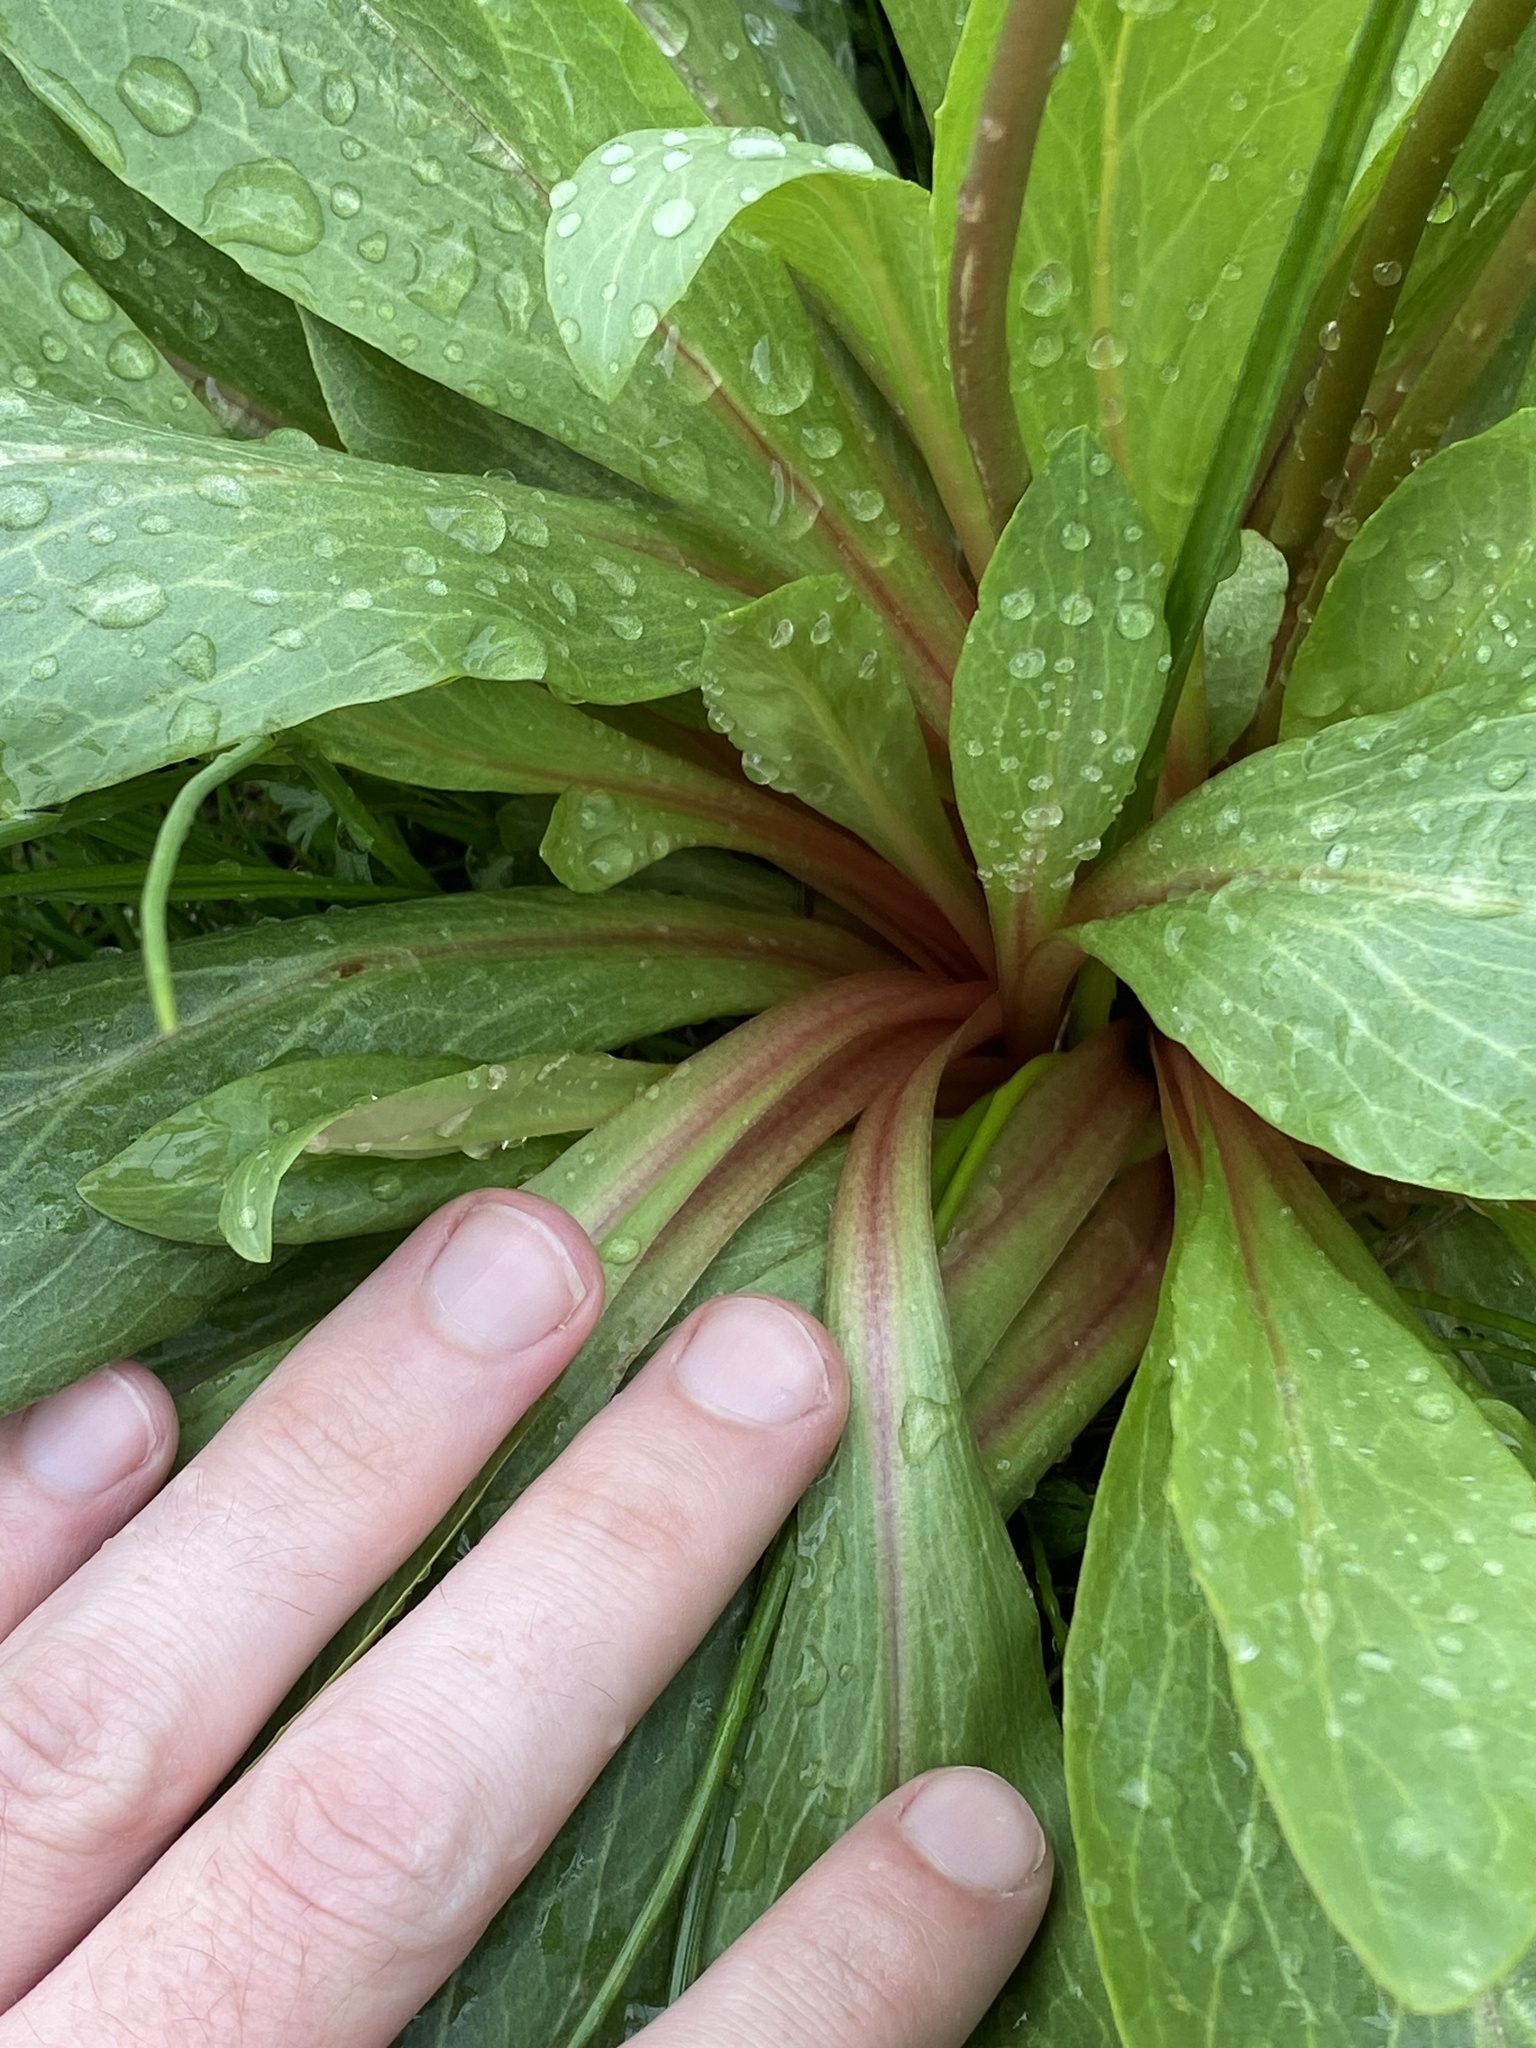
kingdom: Plantae
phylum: Tracheophyta
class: Magnoliopsida
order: Ericales
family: Primulaceae
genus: Dodecatheon
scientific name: Dodecatheon pulchellum
